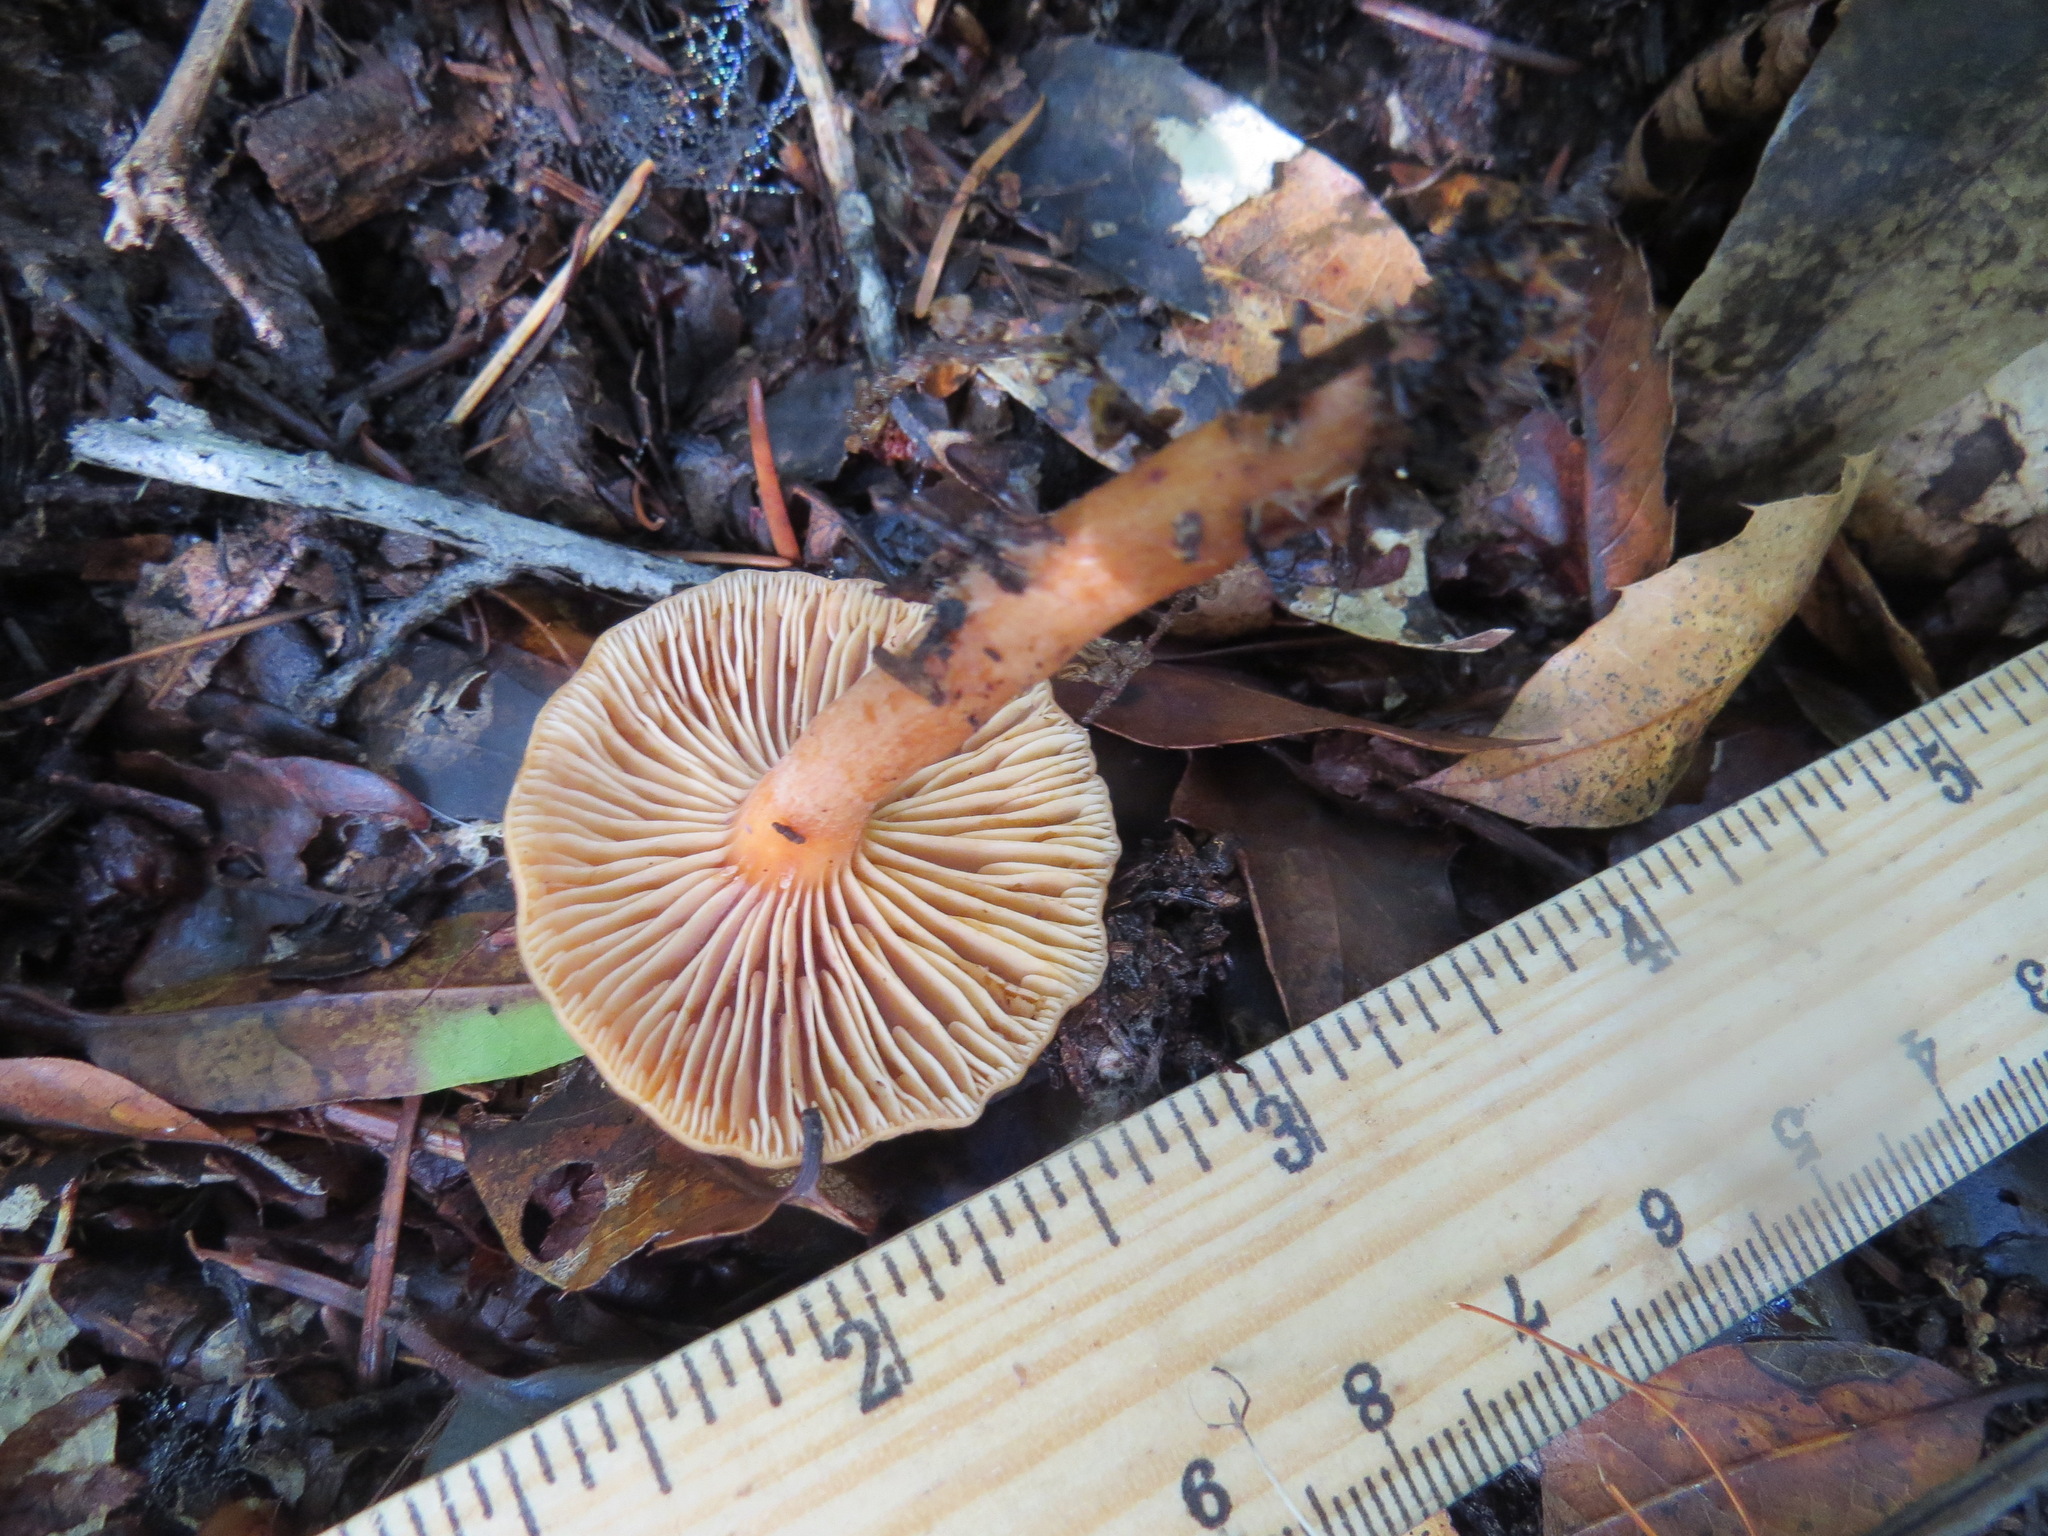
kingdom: Fungi
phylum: Basidiomycota
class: Agaricomycetes
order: Russulales
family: Russulaceae
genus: Lactarius
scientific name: Lactarius rubidus
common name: Candy cap
